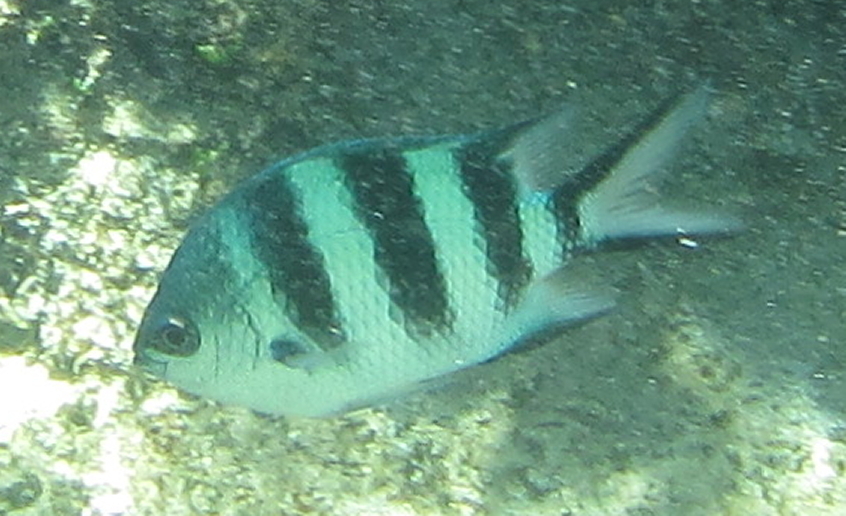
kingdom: Animalia
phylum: Chordata
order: Perciformes
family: Pomacentridae
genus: Abudefduf
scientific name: Abudefduf natalensis
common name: Natal sergeant
